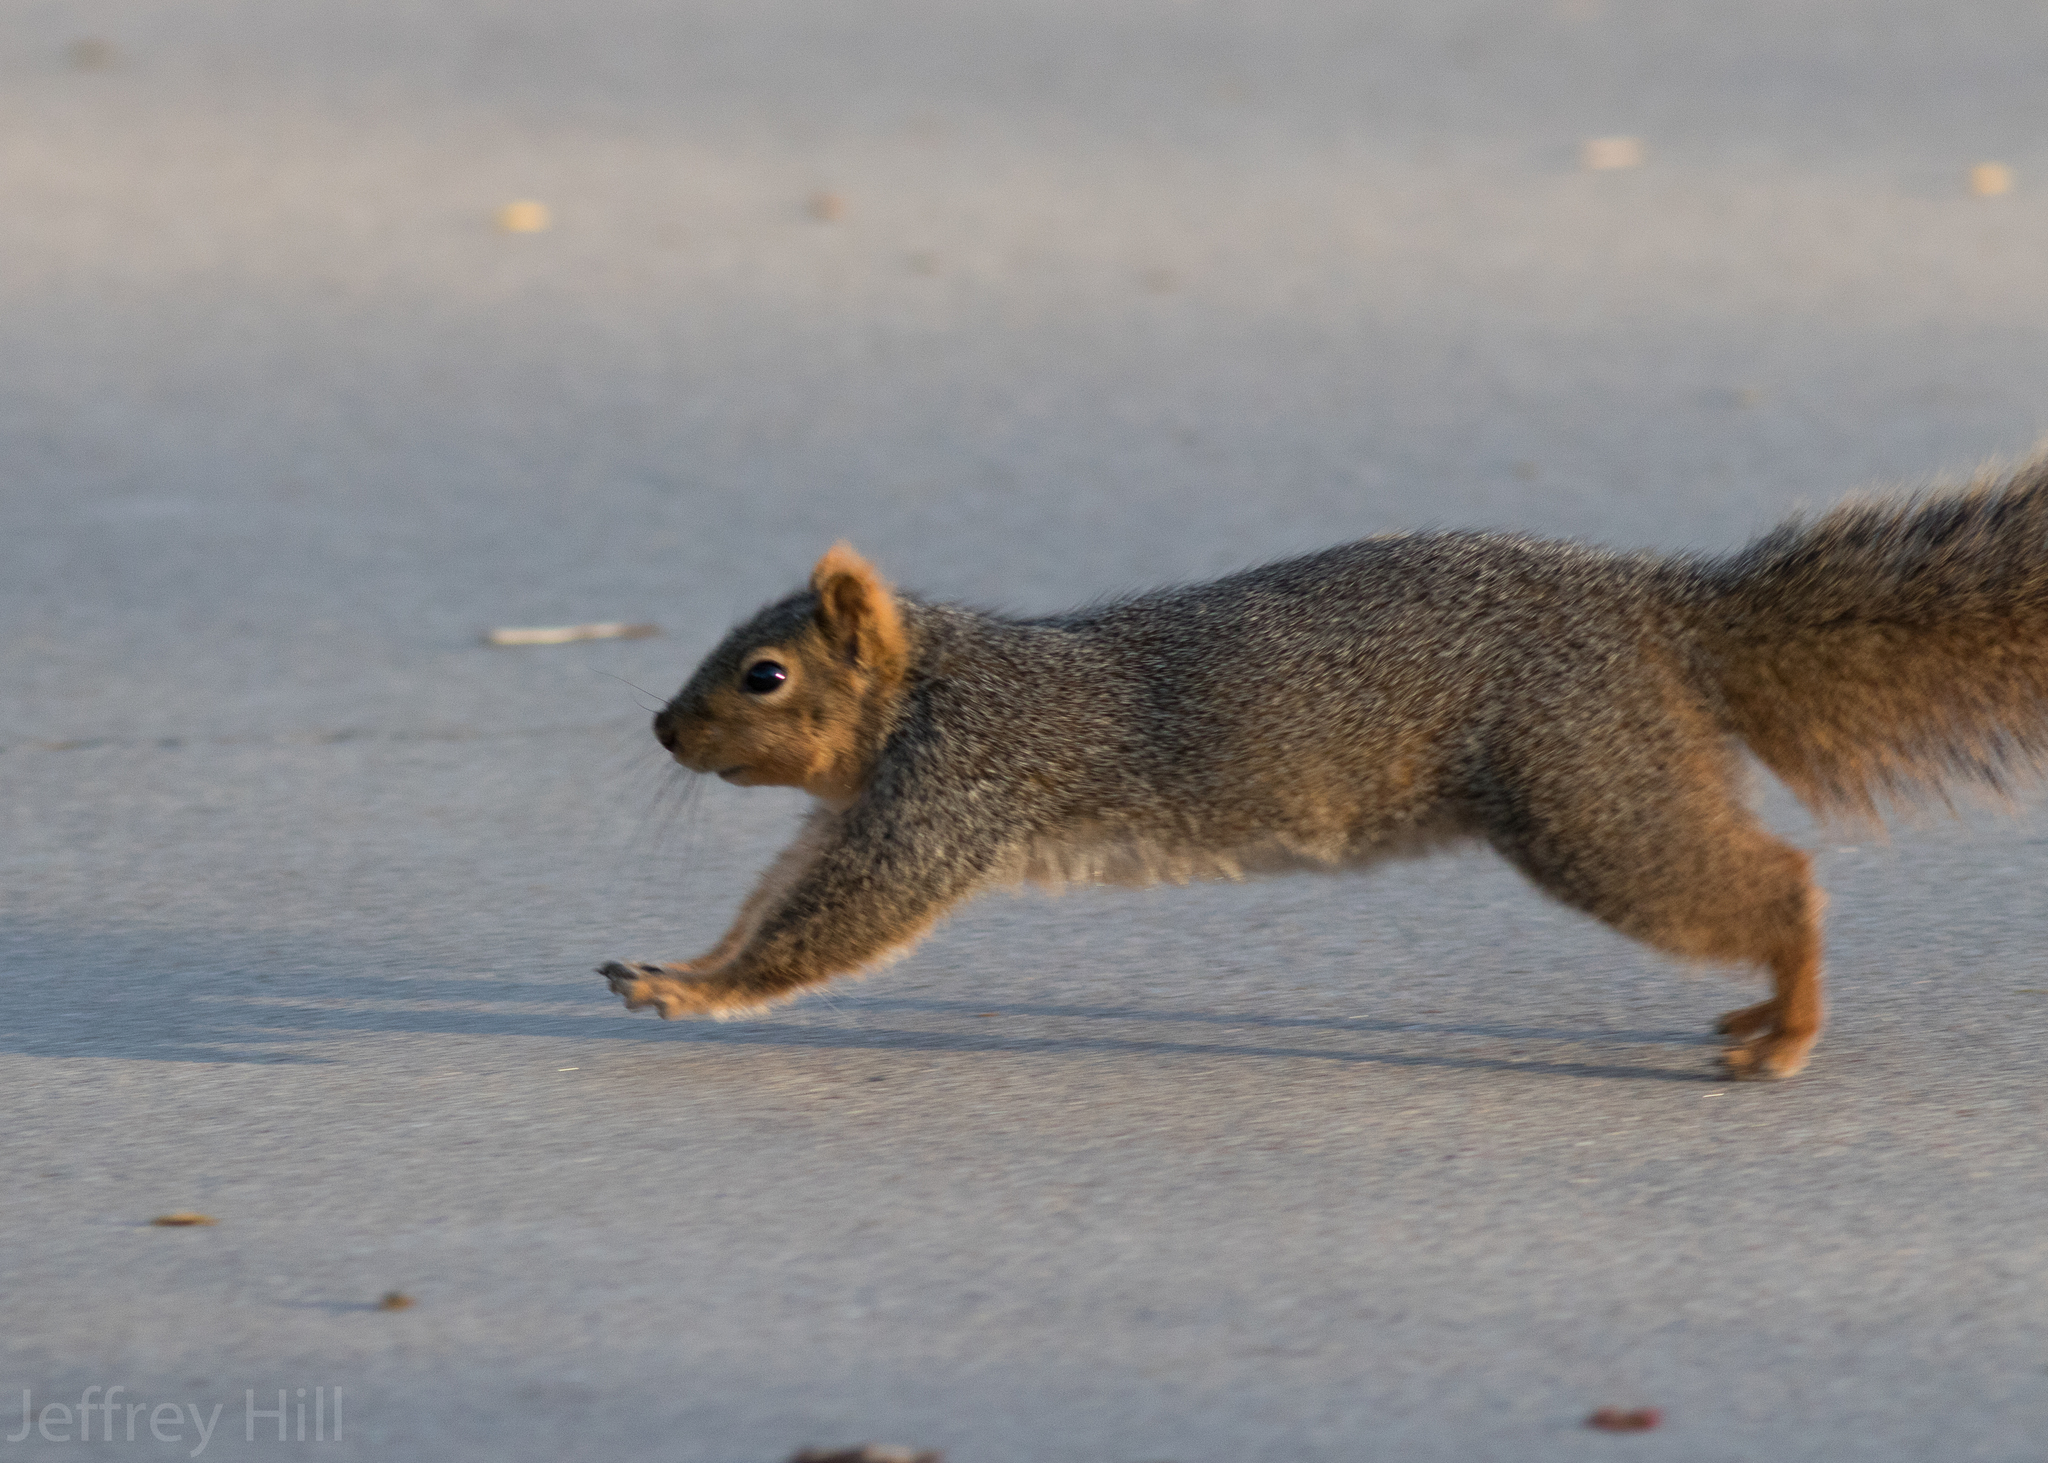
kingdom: Animalia
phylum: Chordata
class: Mammalia
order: Rodentia
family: Sciuridae
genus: Sciurus
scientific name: Sciurus niger
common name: Fox squirrel
